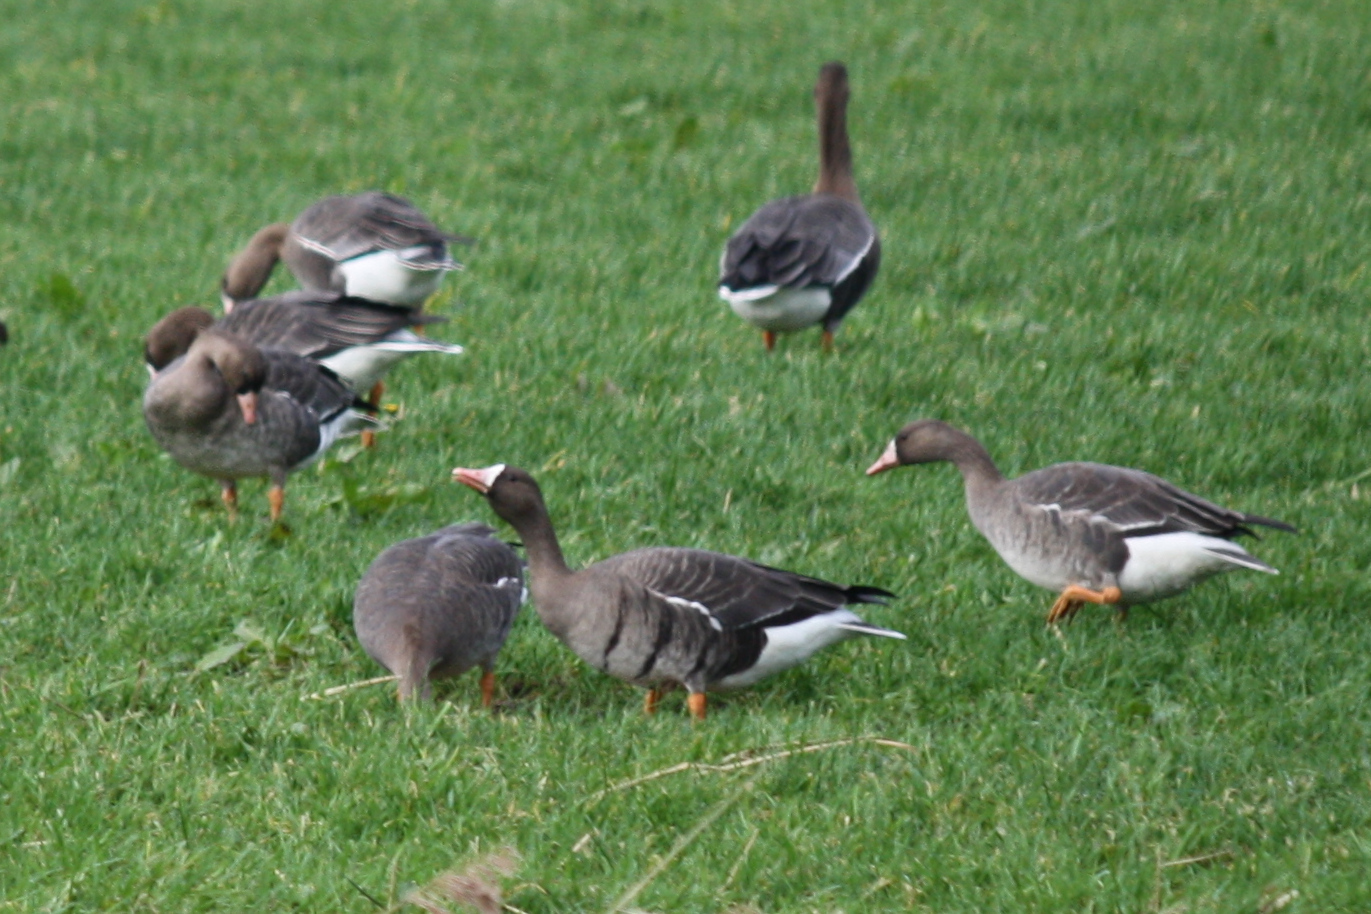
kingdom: Animalia
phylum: Chordata
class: Aves
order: Anseriformes
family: Anatidae
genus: Anser
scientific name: Anser albifrons
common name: Greater white-fronted goose
